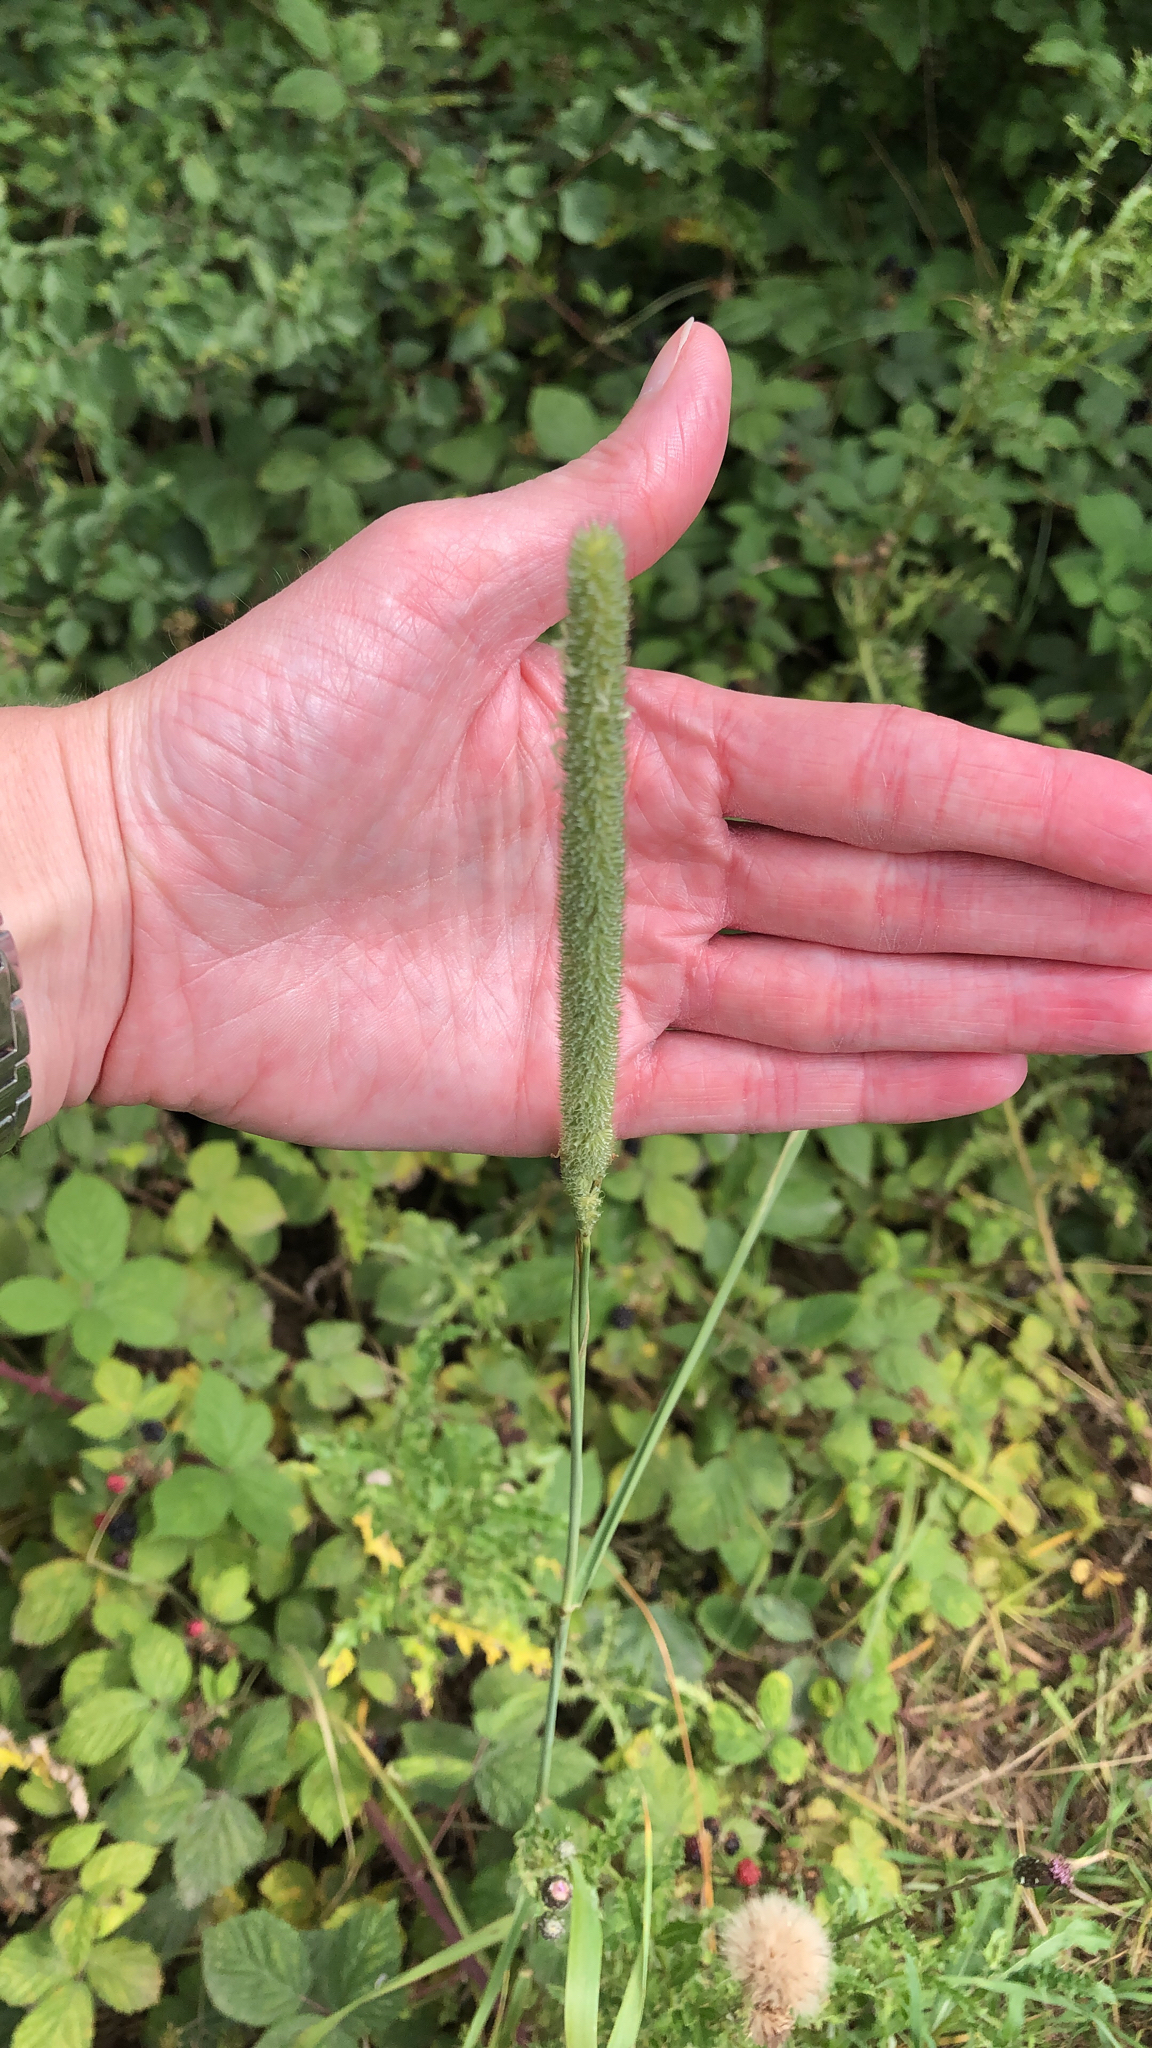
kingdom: Plantae
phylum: Tracheophyta
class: Liliopsida
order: Poales
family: Poaceae
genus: Phleum
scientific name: Phleum pratense
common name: Timothy grass
